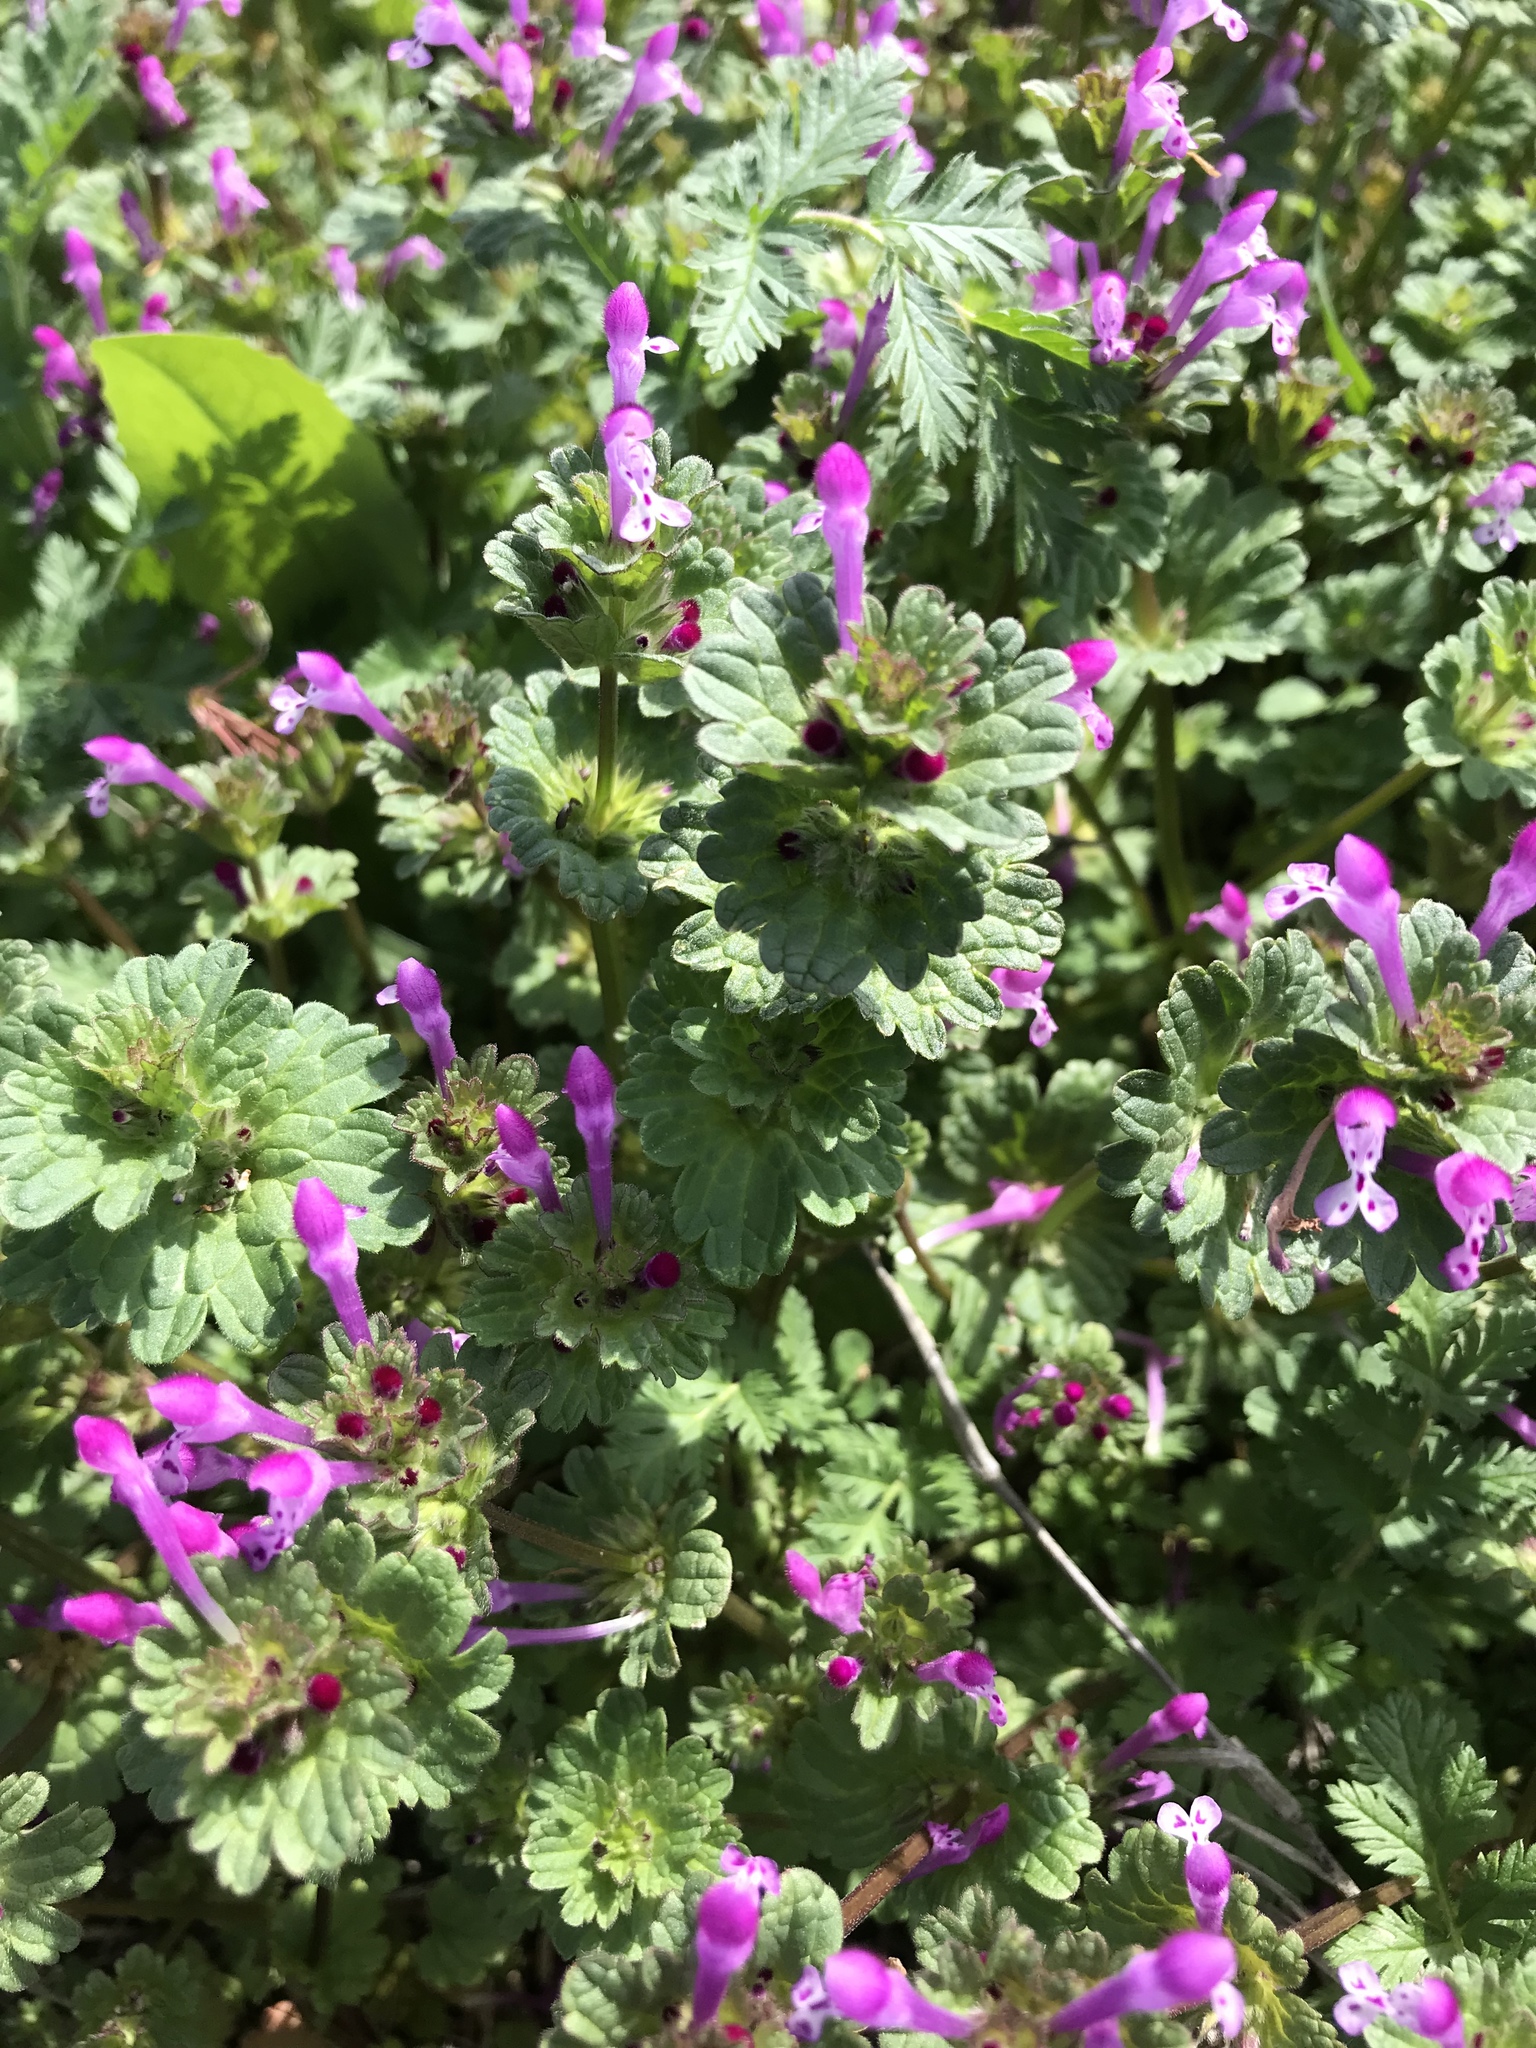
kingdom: Plantae
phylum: Tracheophyta
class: Magnoliopsida
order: Lamiales
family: Lamiaceae
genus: Lamium
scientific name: Lamium amplexicaule
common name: Henbit dead-nettle
